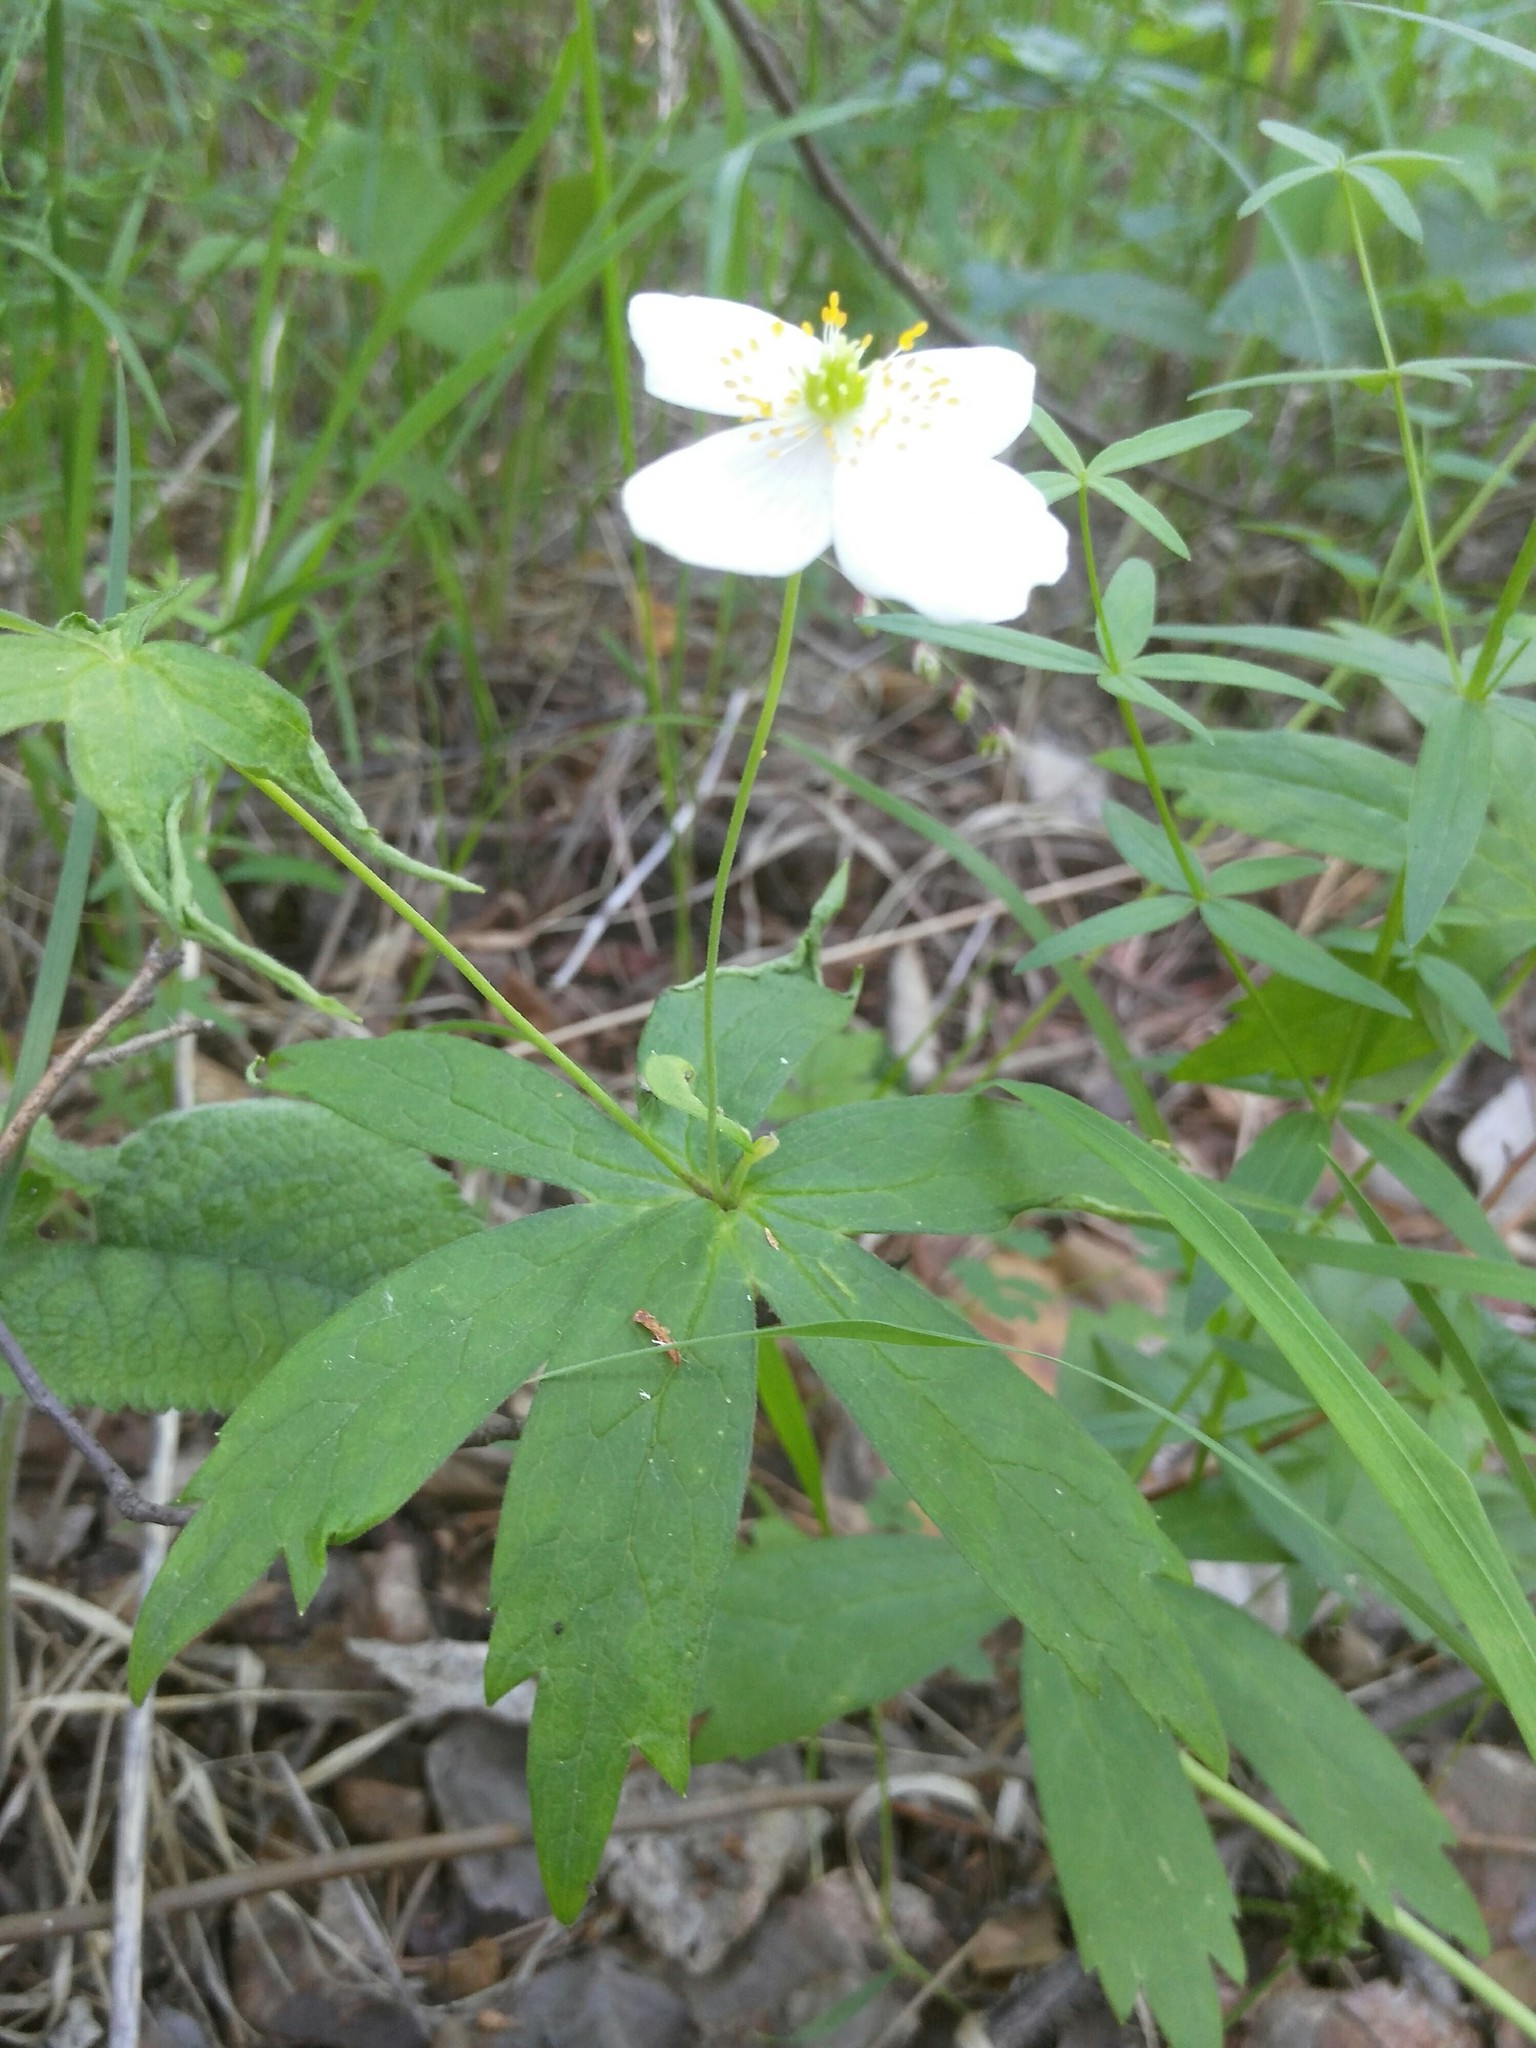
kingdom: Plantae
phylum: Tracheophyta
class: Magnoliopsida
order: Ranunculales
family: Ranunculaceae
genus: Anemonastrum
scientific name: Anemonastrum dichotomum
